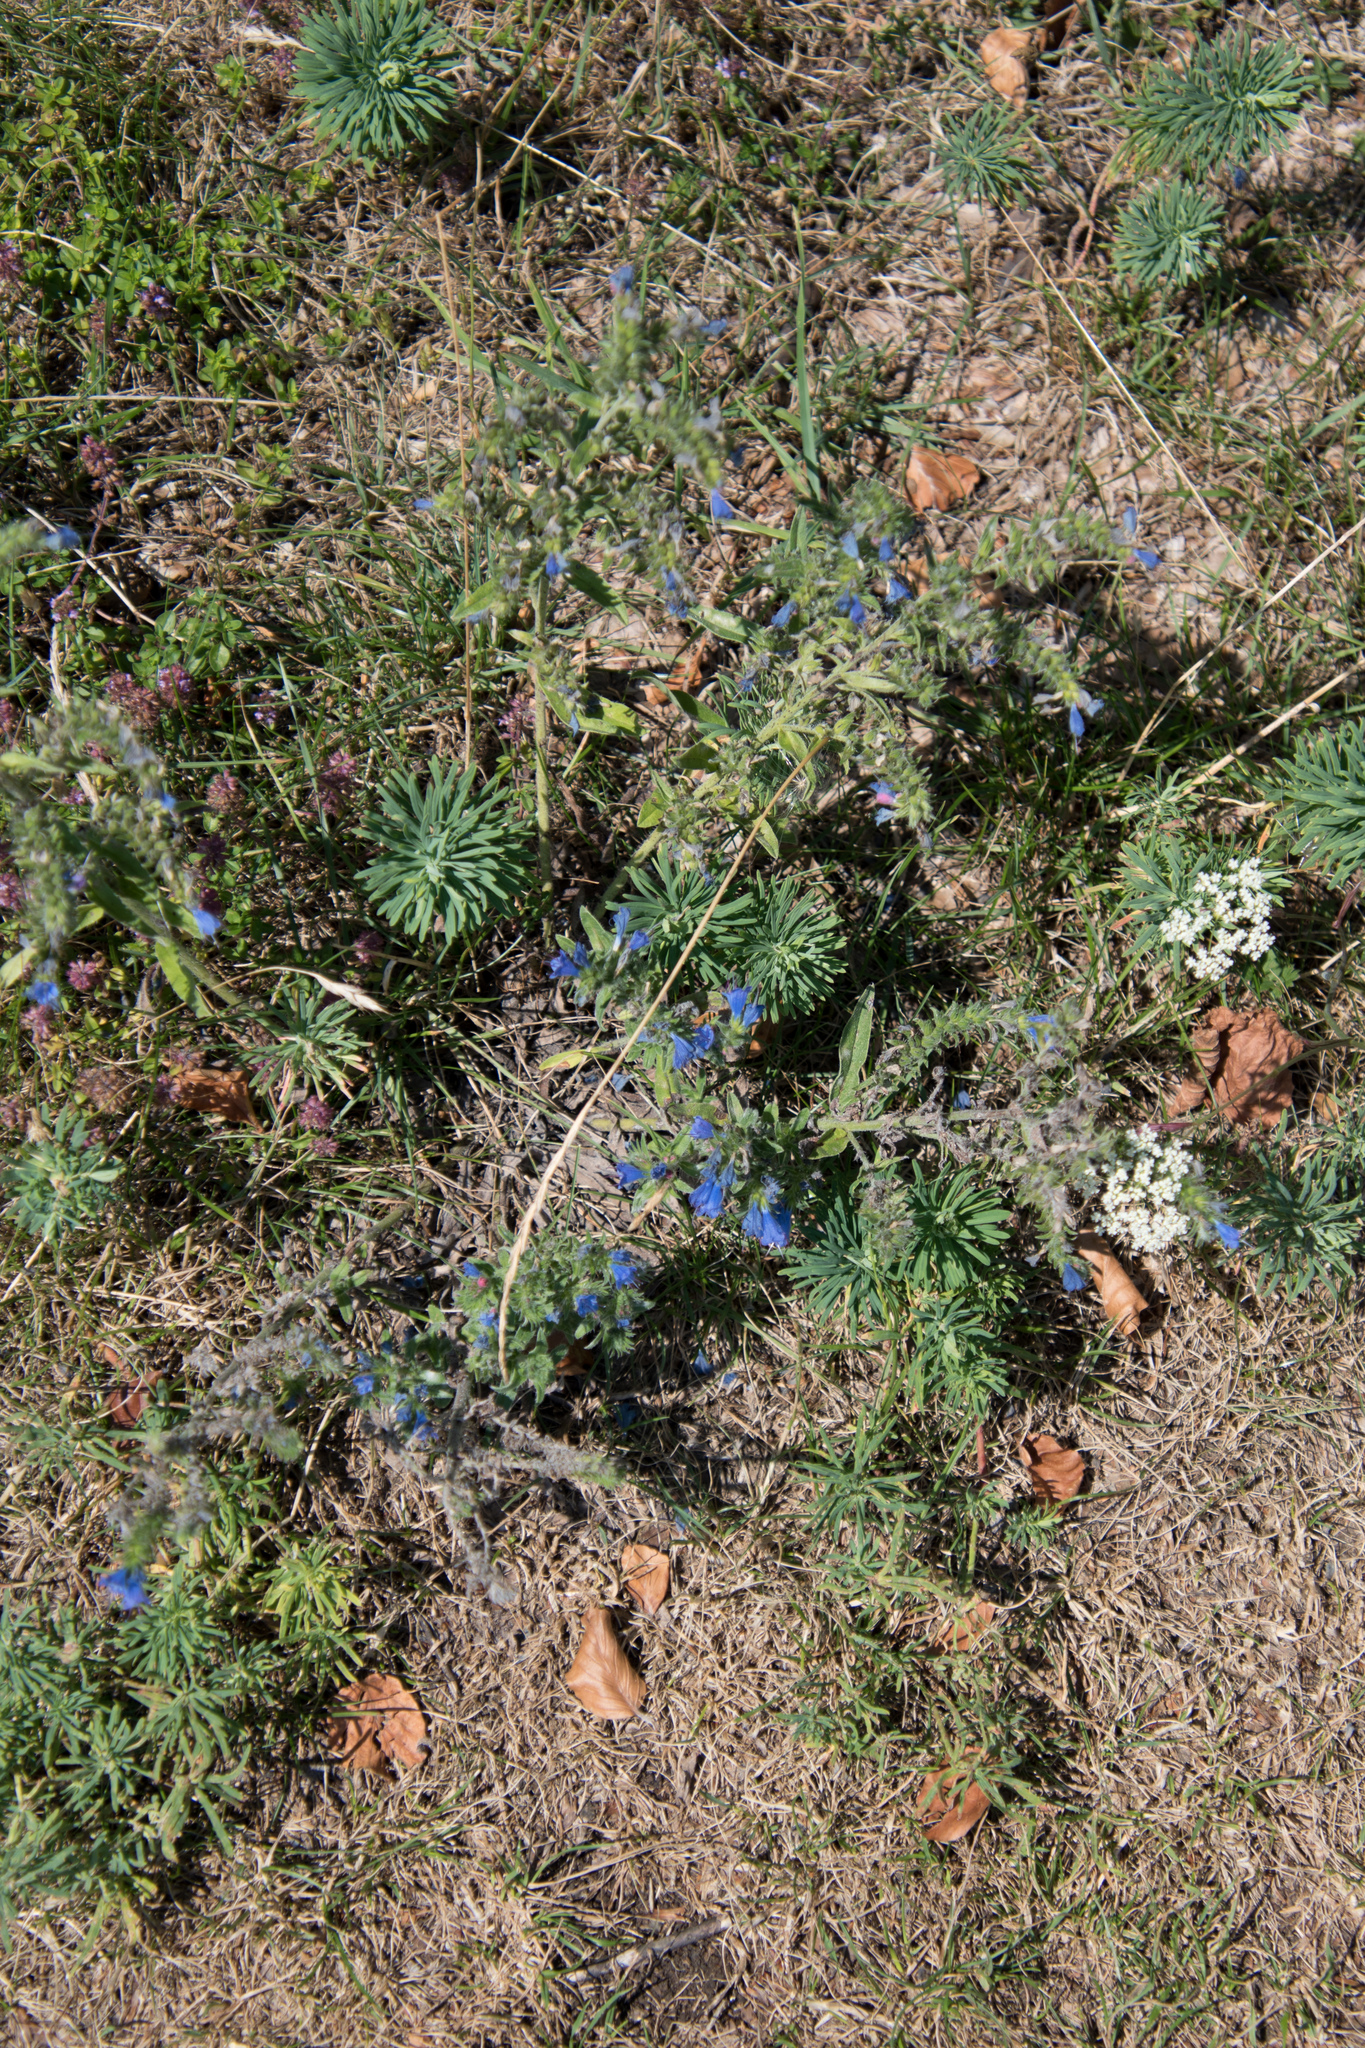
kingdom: Plantae
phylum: Tracheophyta
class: Magnoliopsida
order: Boraginales
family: Boraginaceae
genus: Echium
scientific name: Echium vulgare
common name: Common viper's bugloss
